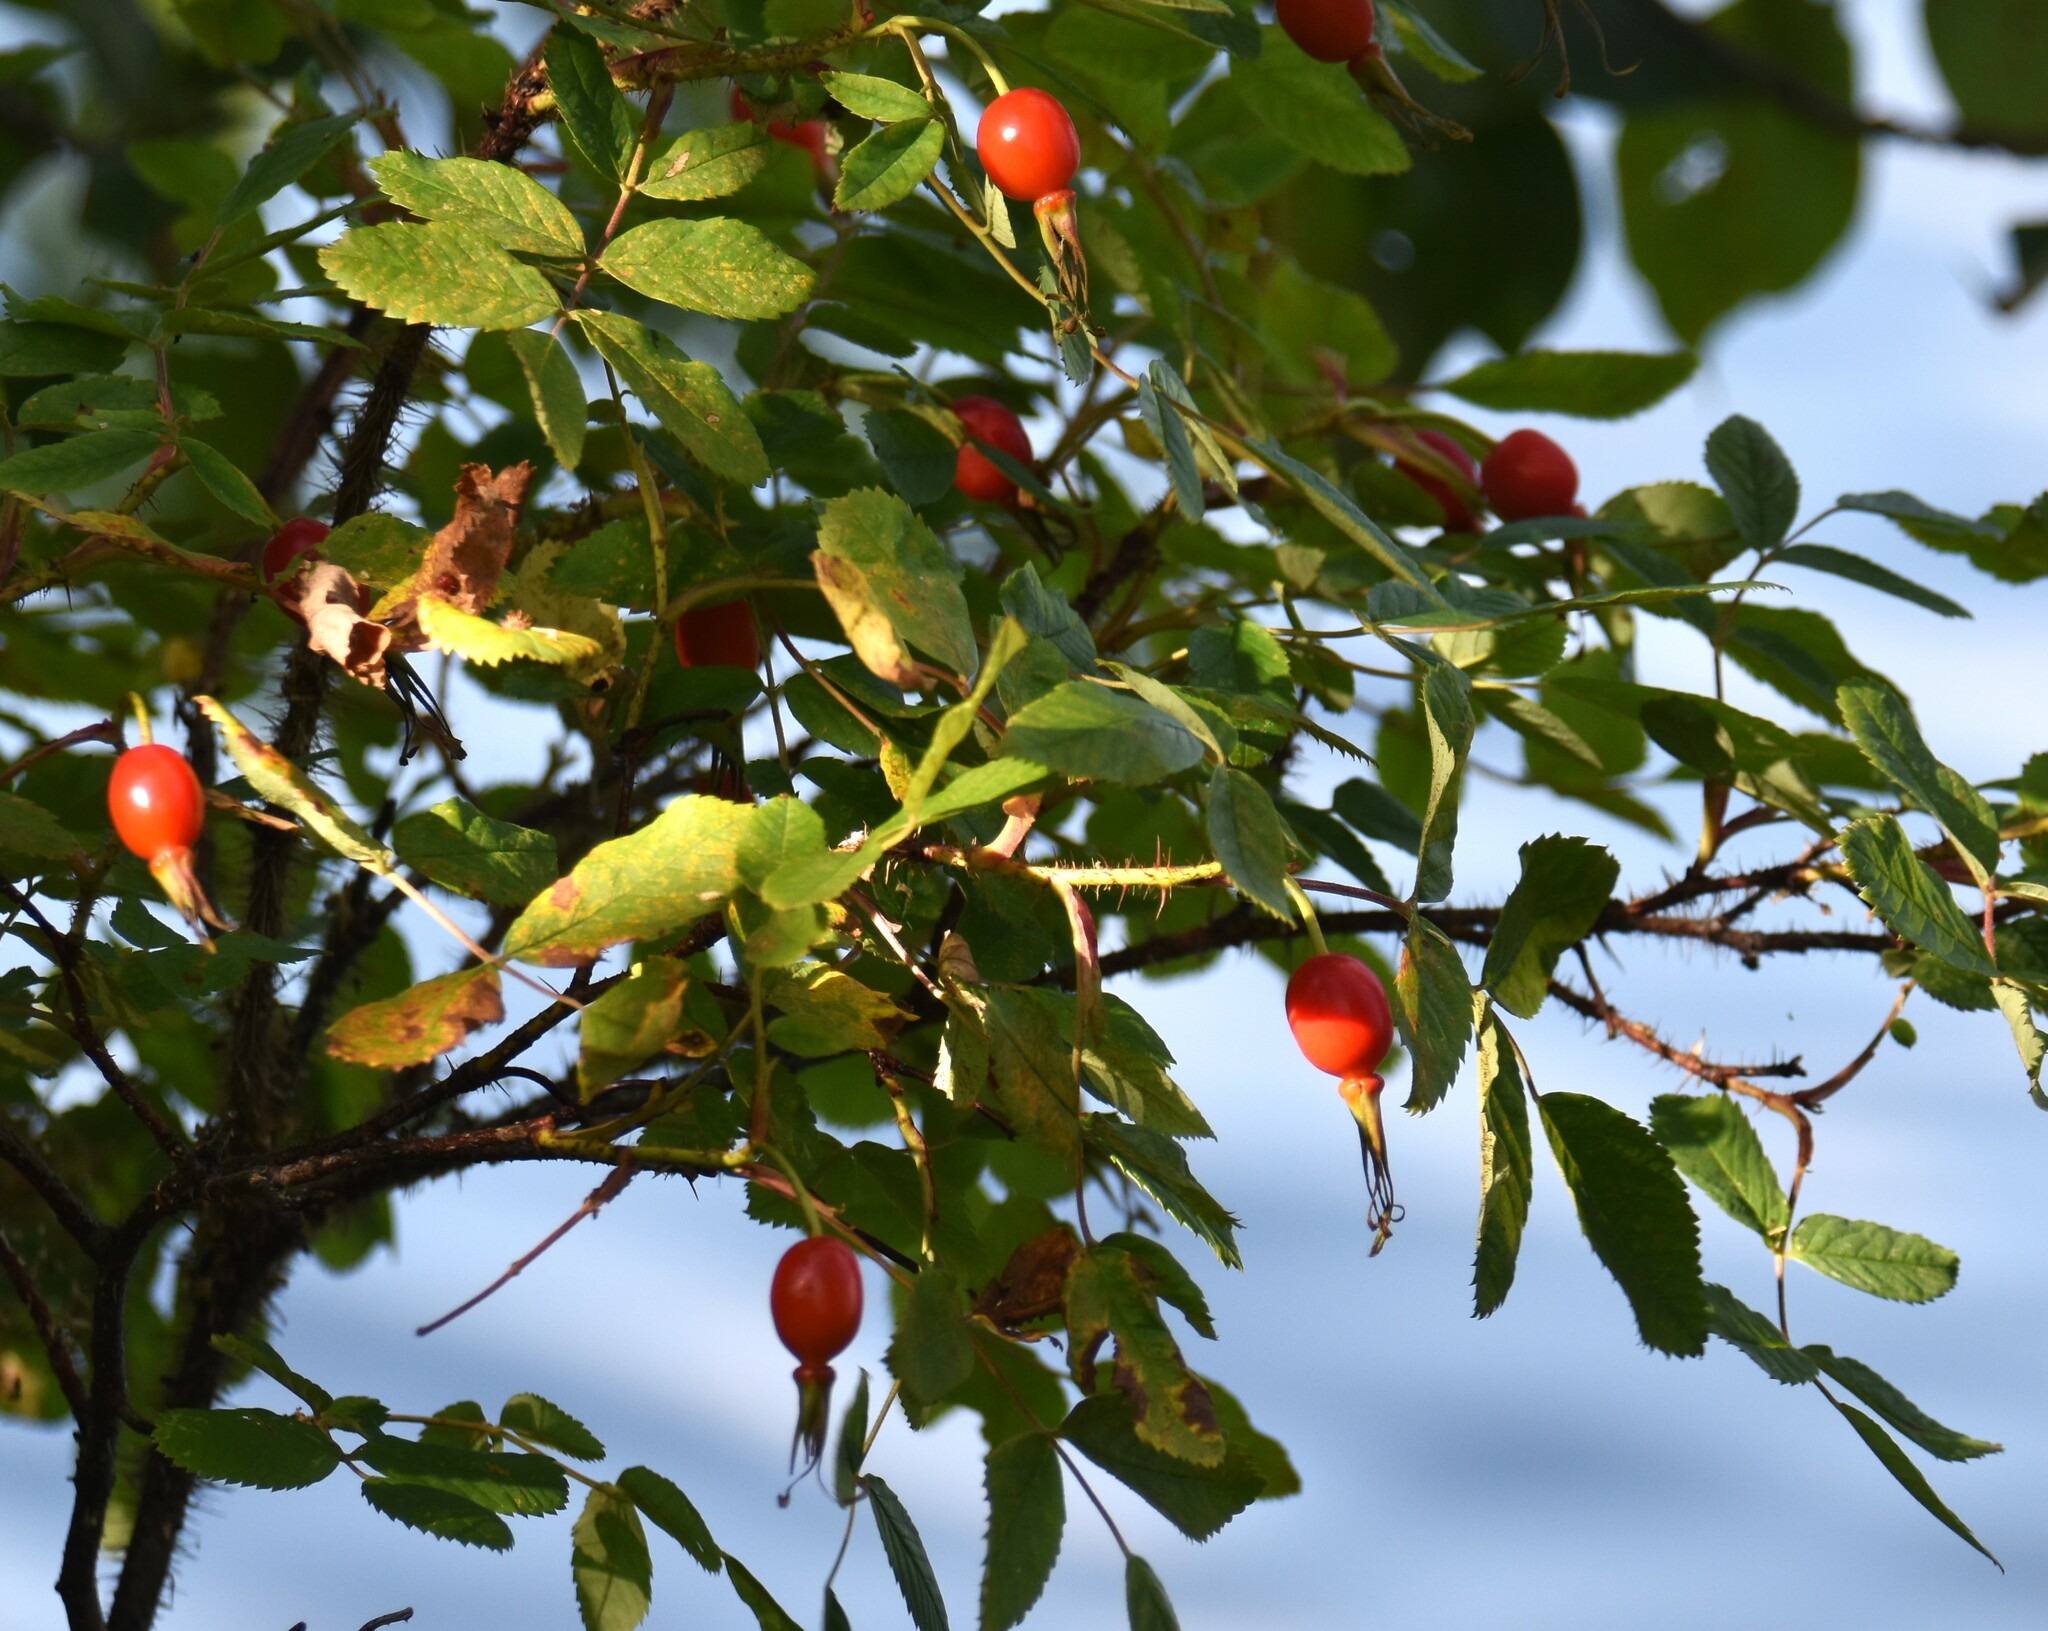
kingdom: Plantae
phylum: Tracheophyta
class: Magnoliopsida
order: Rosales
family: Rosaceae
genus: Rosa
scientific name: Rosa acicularis
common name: Prickly rose
